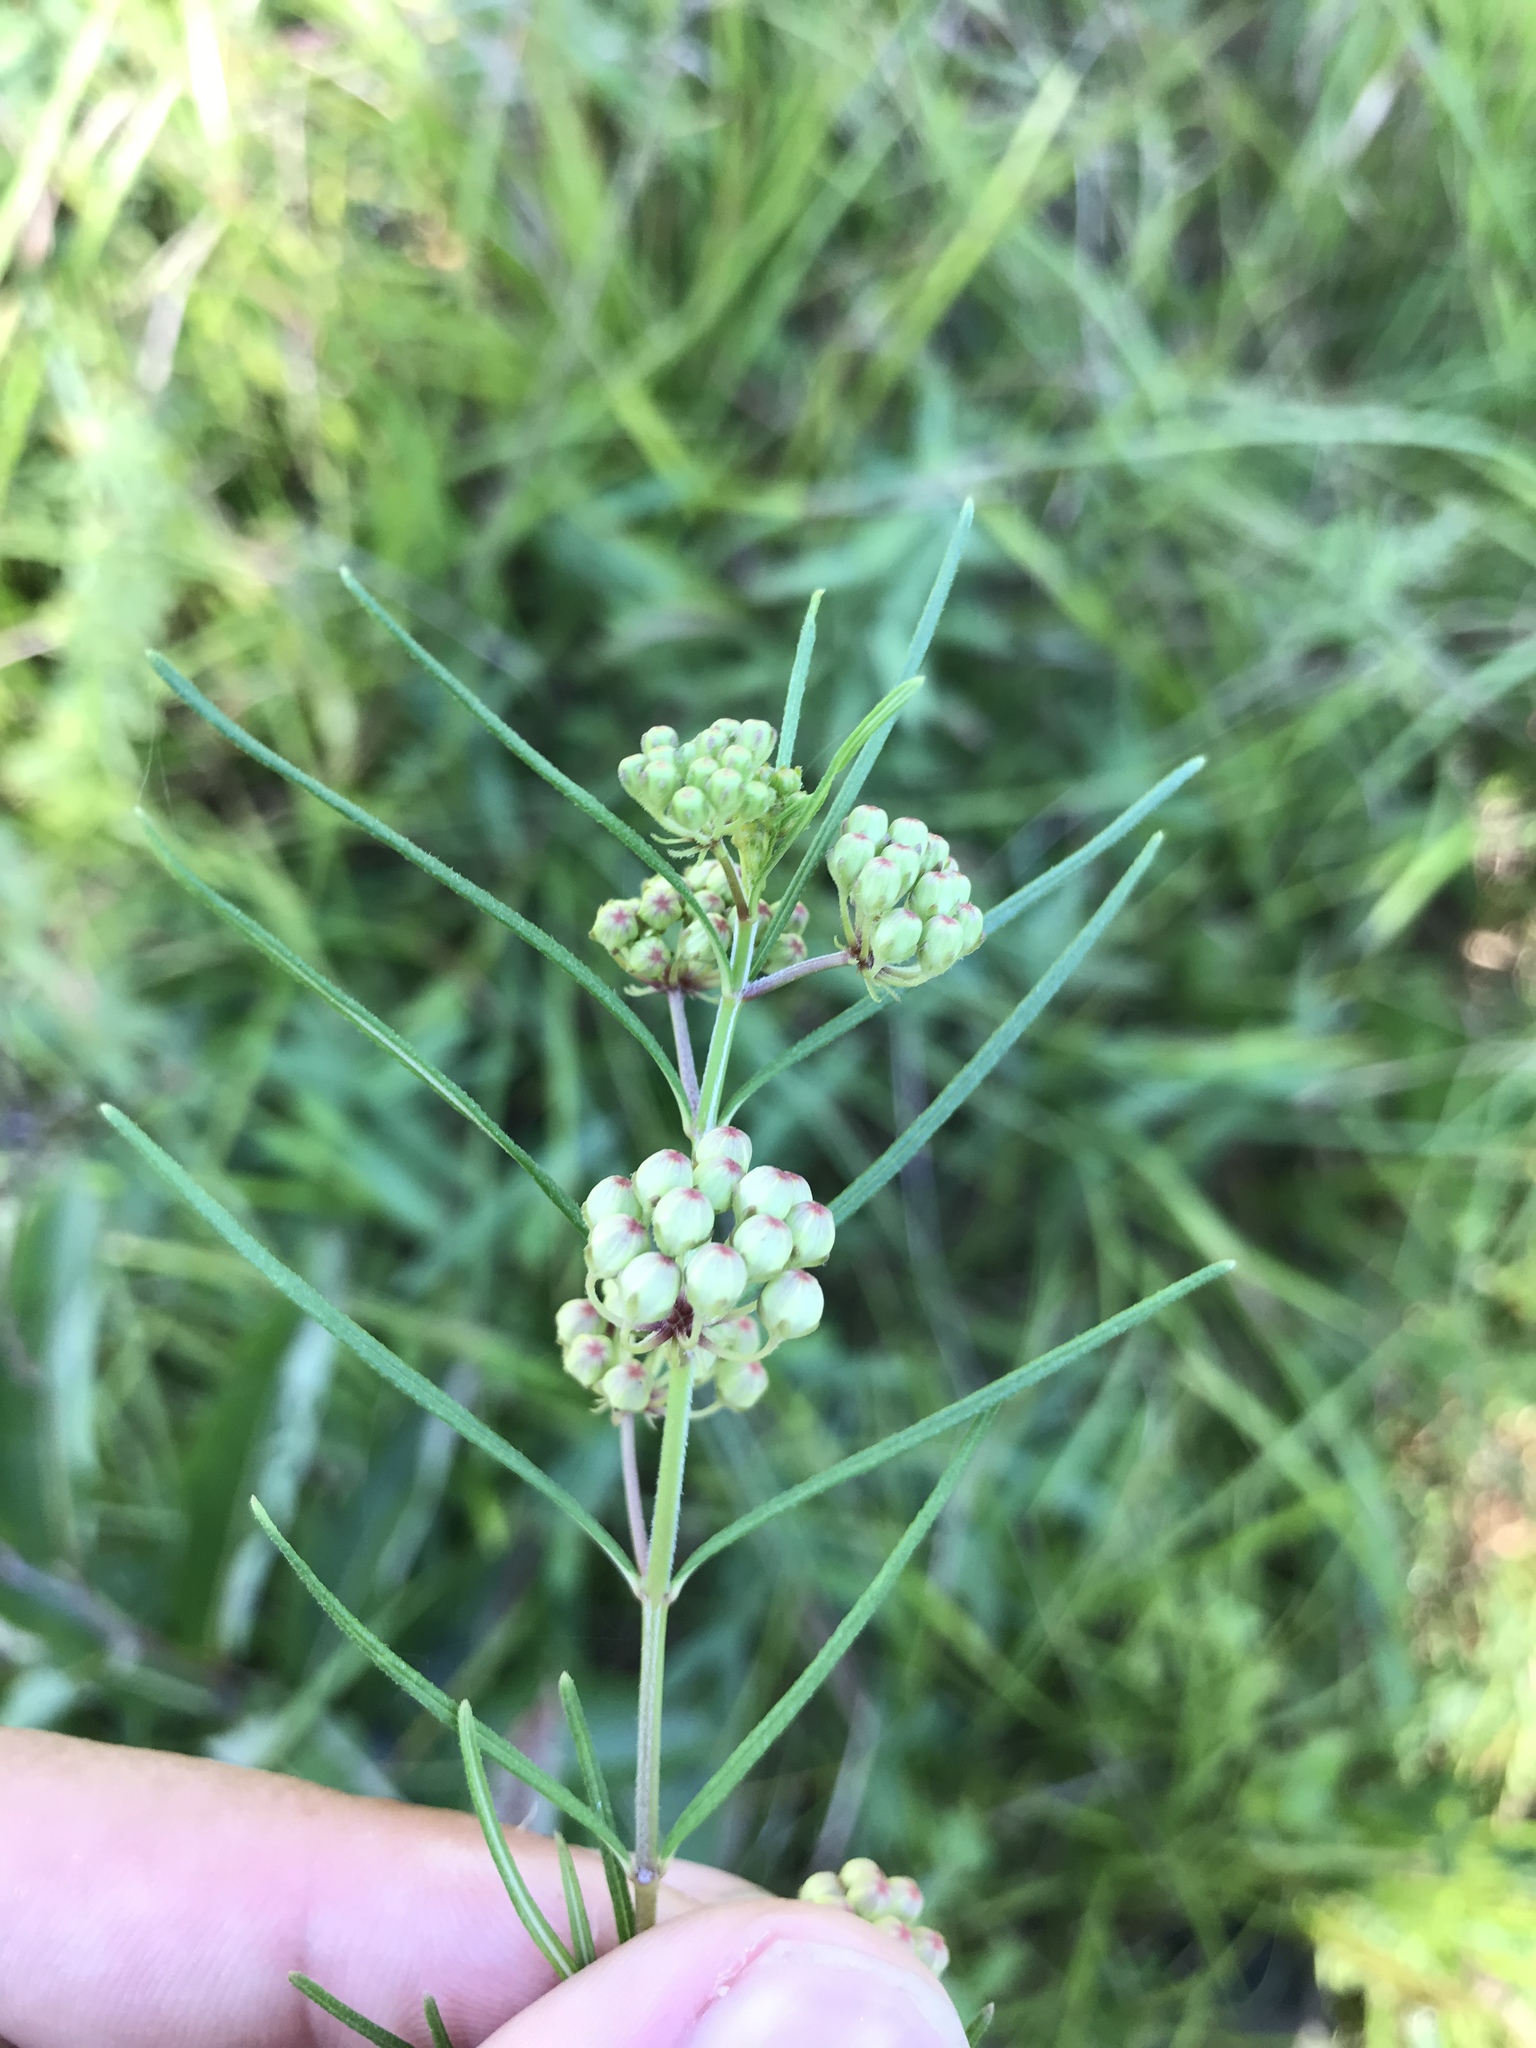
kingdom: Plantae
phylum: Tracheophyta
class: Magnoliopsida
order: Gentianales
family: Apocynaceae
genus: Asclepias
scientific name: Asclepias verticillata
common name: Eastern whorled milkweed
